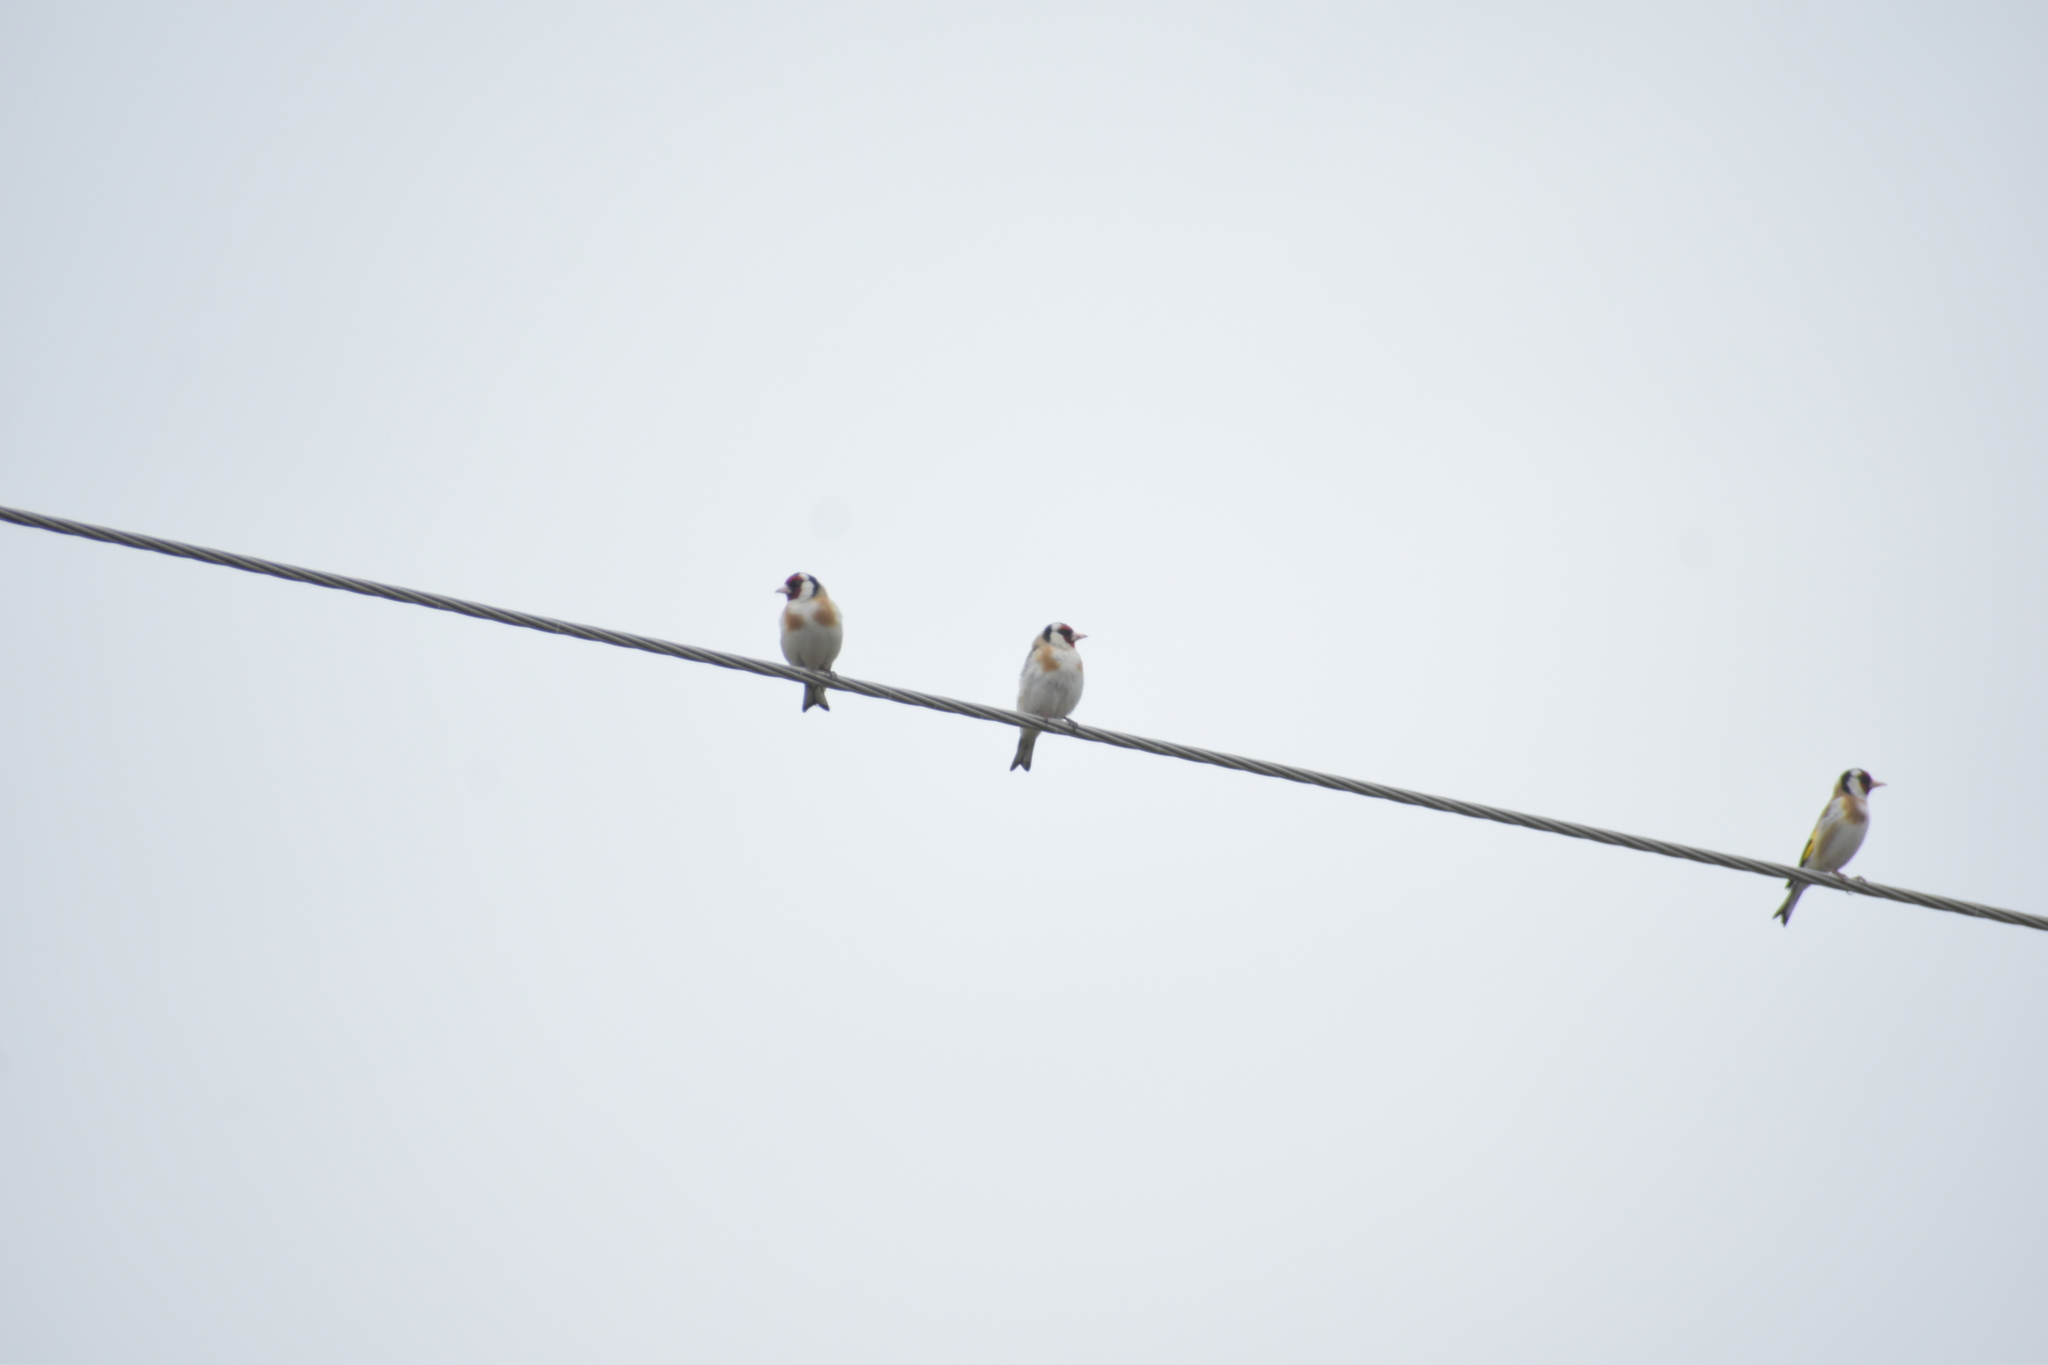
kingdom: Animalia
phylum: Chordata
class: Aves
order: Passeriformes
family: Fringillidae
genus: Carduelis
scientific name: Carduelis carduelis
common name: European goldfinch
